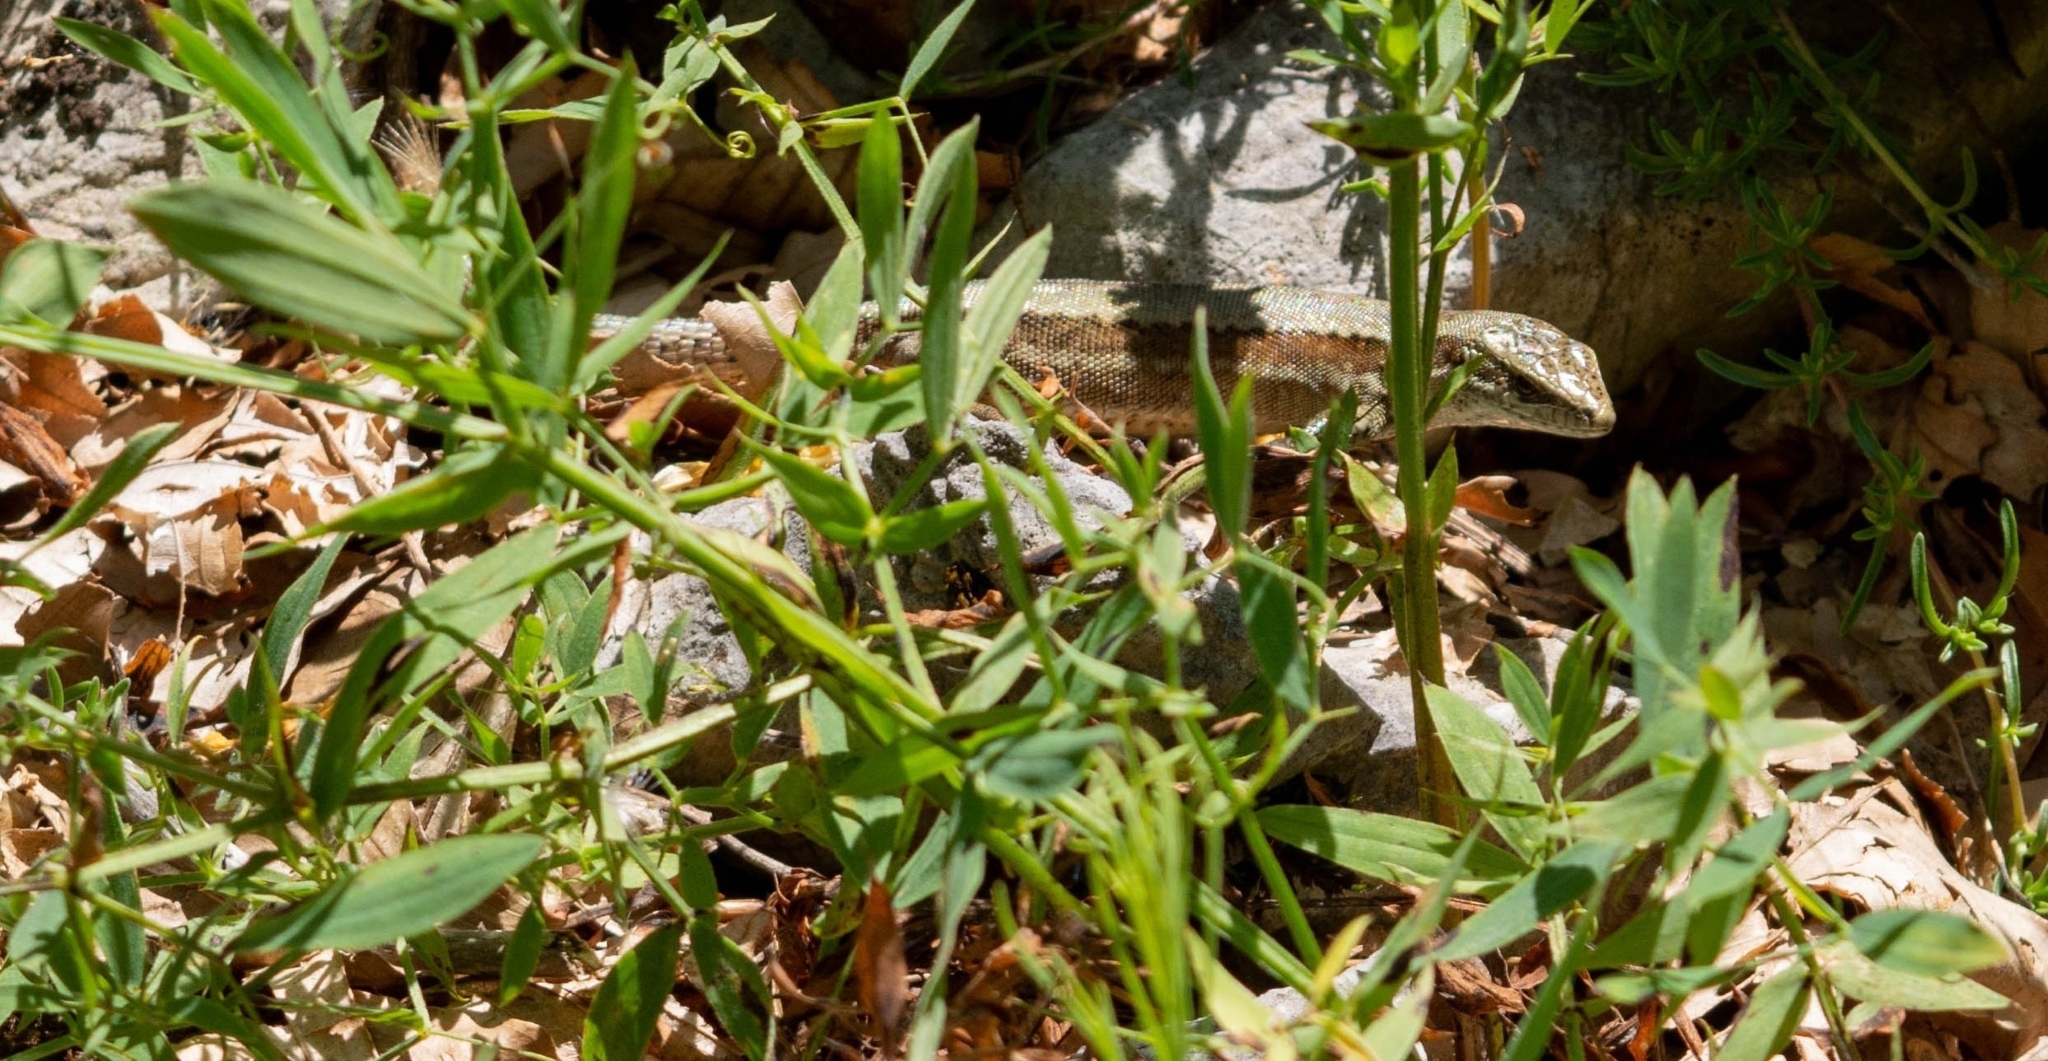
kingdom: Animalia
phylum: Chordata
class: Squamata
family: Lacertidae
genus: Podarcis
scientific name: Podarcis muralis
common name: Common wall lizard
